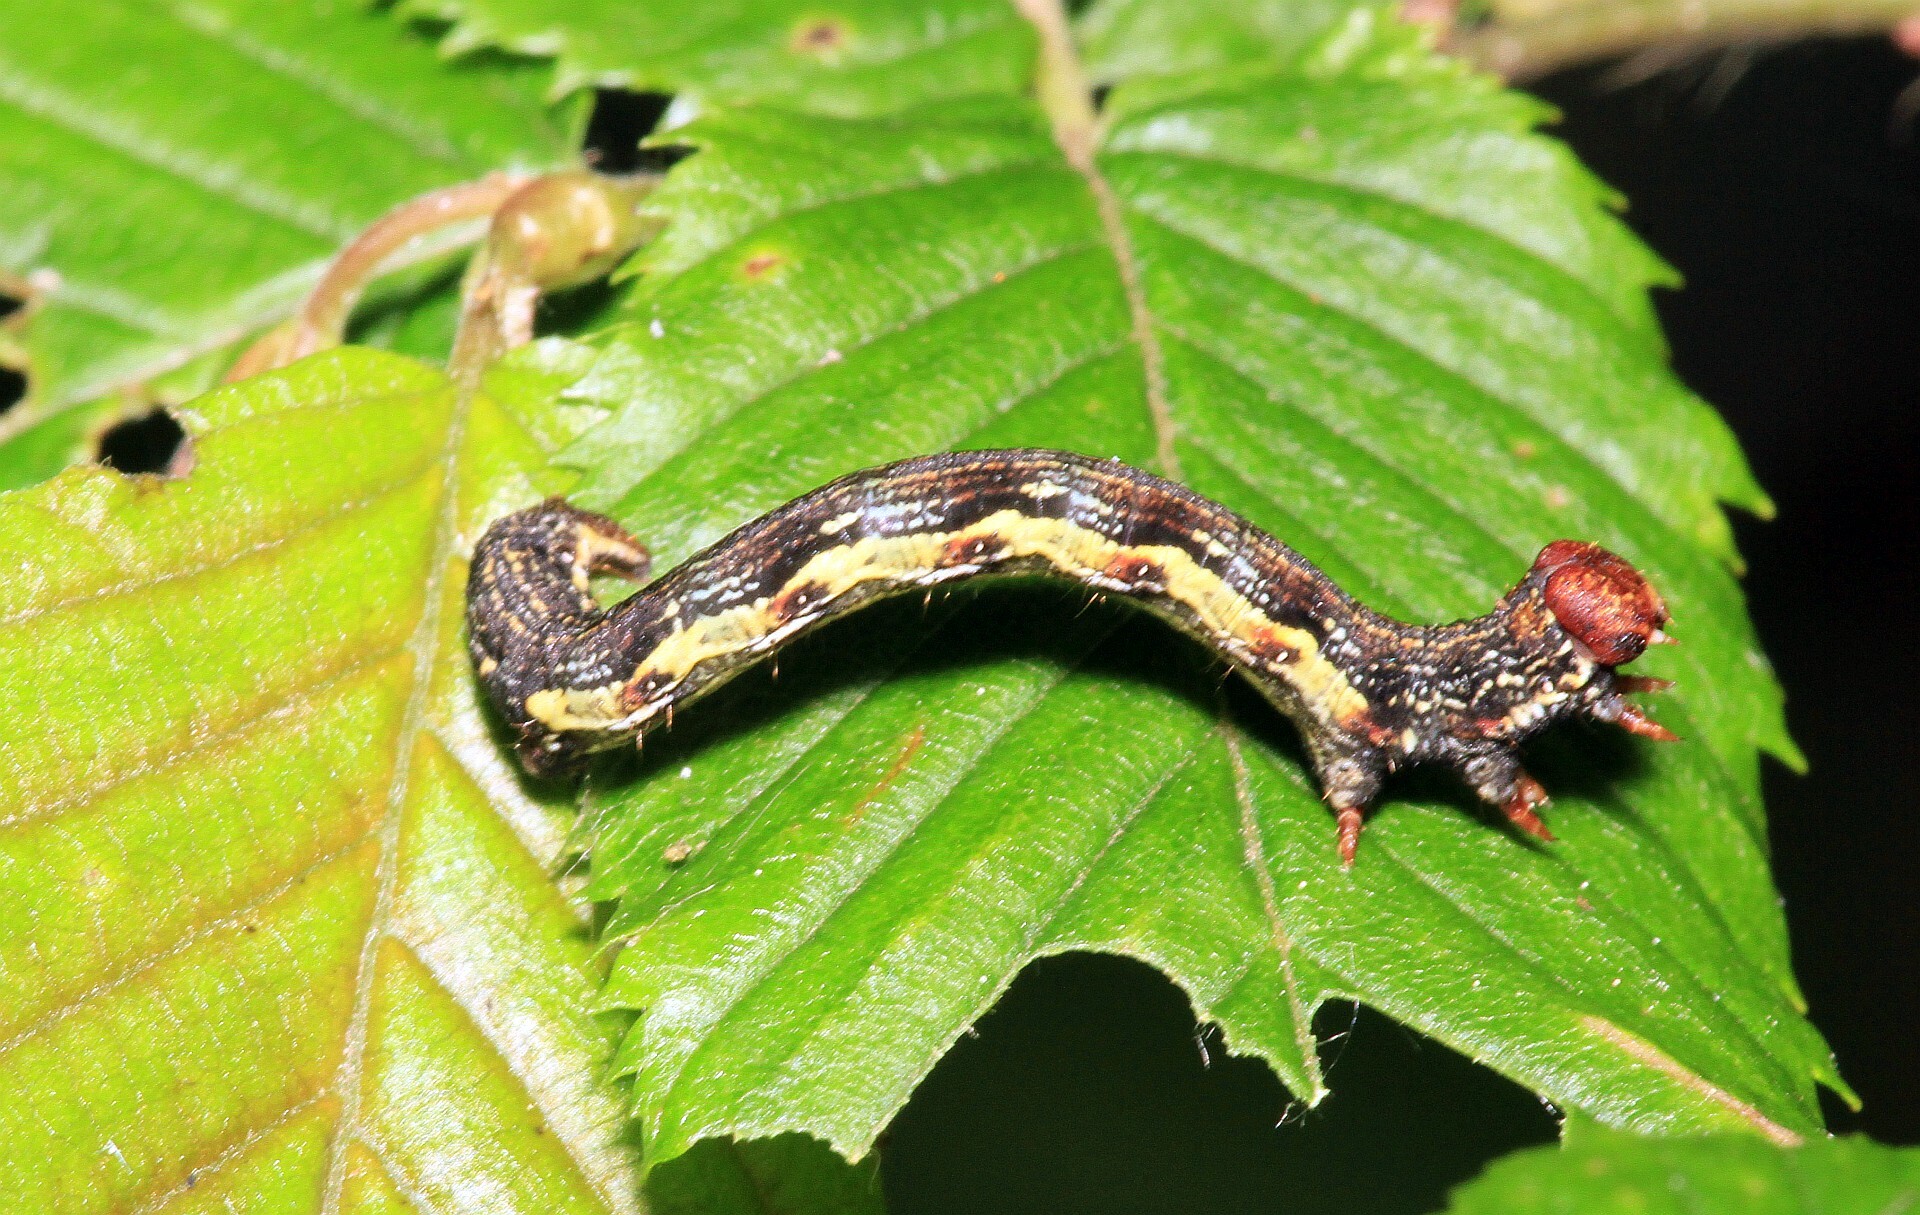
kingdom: Animalia
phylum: Arthropoda
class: Insecta
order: Lepidoptera
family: Geometridae
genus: Erannis
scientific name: Erannis defoliaria
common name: Mottled umber
